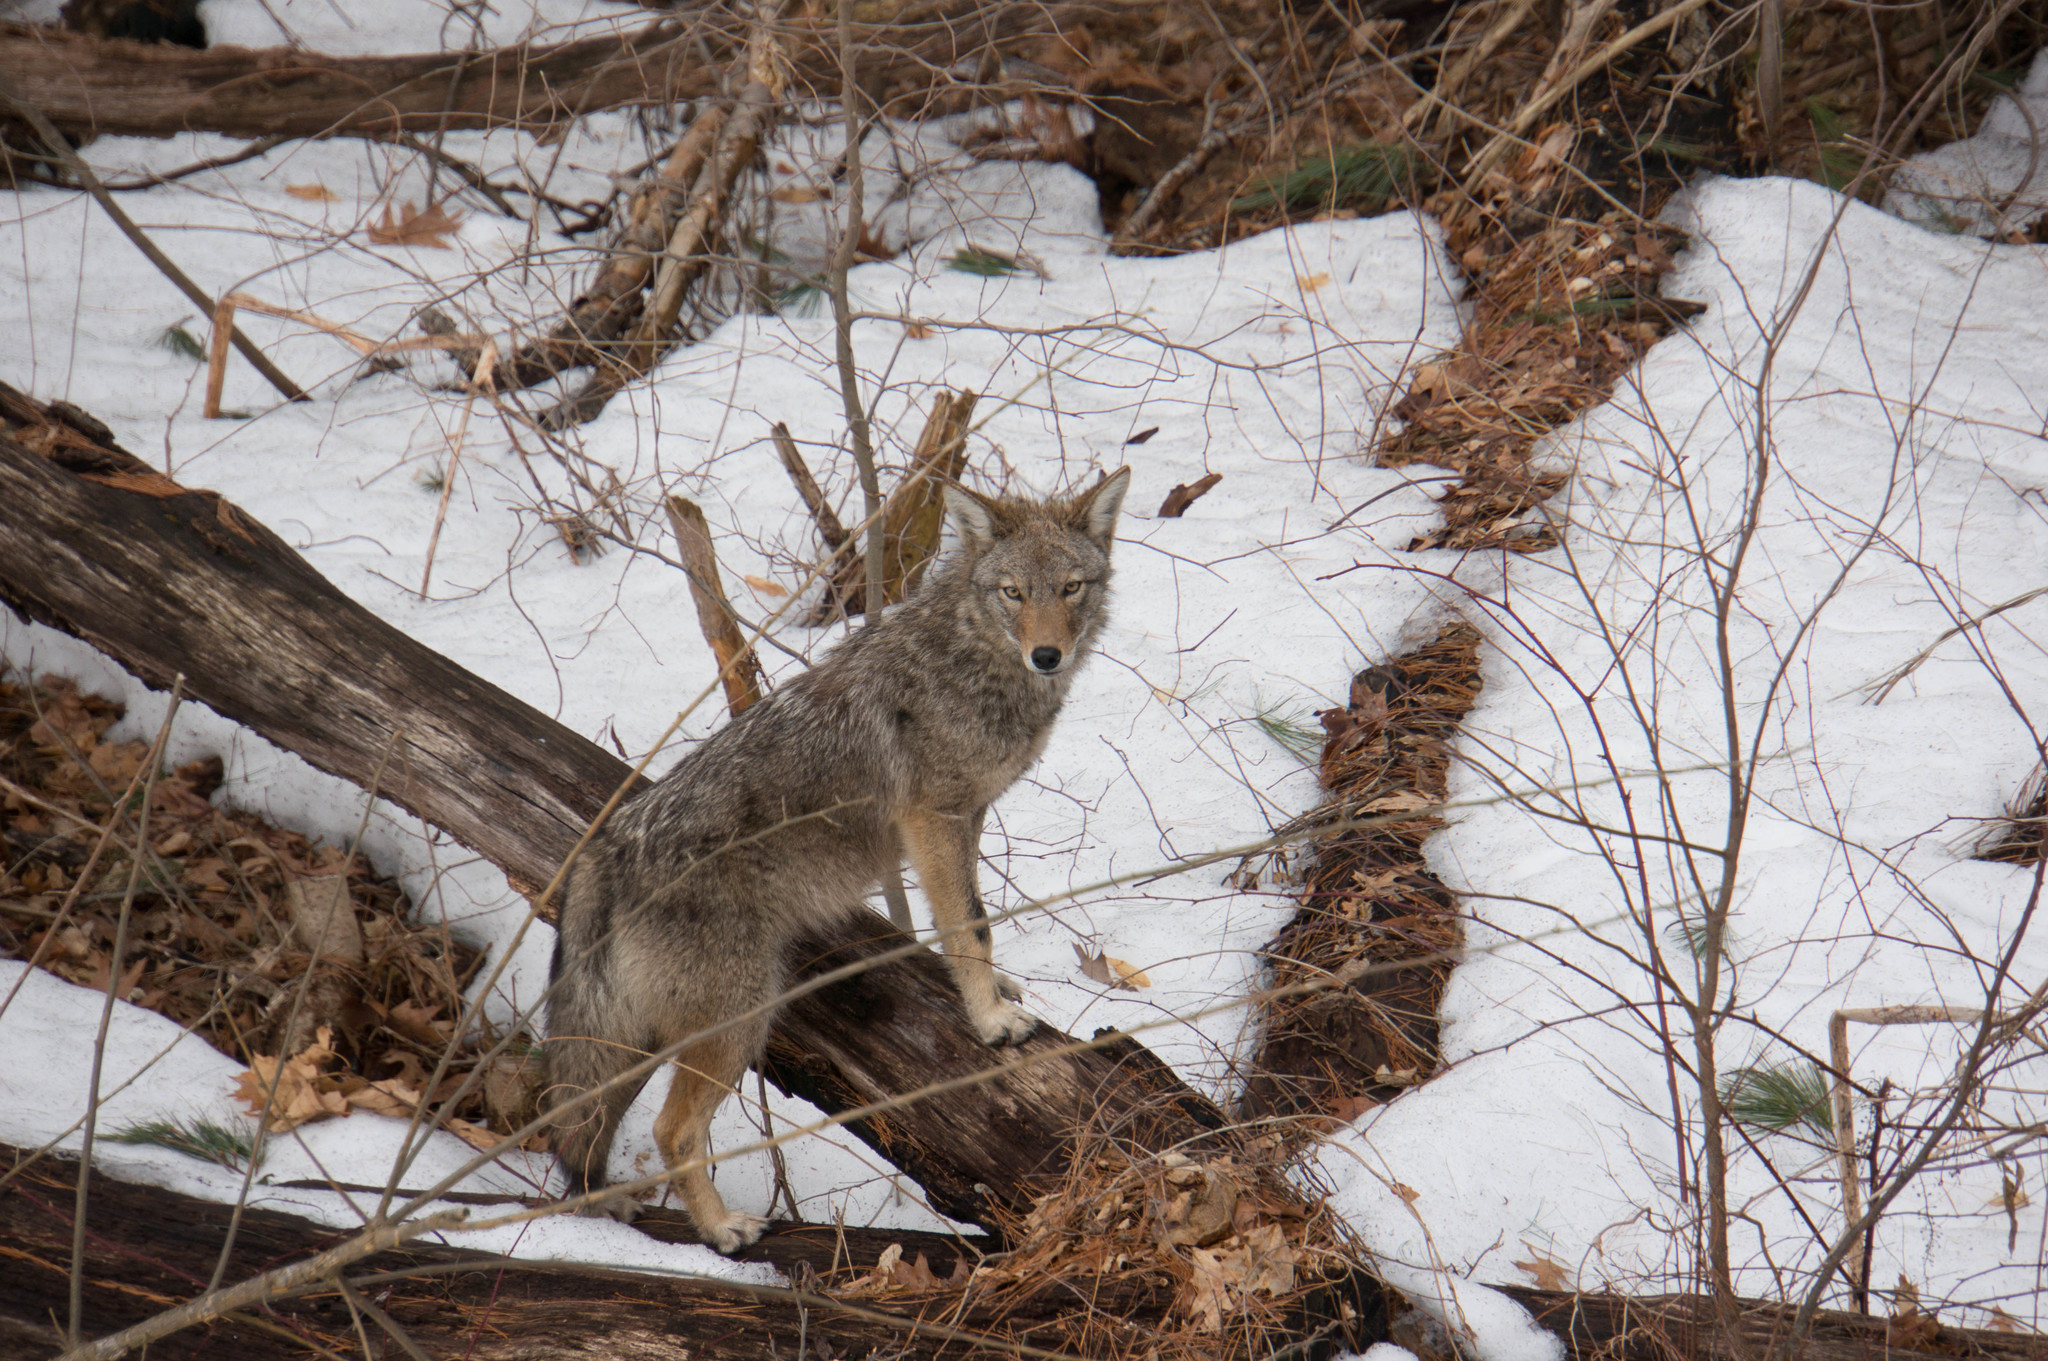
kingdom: Animalia
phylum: Chordata
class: Mammalia
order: Carnivora
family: Canidae
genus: Canis
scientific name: Canis latrans
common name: Coyote
